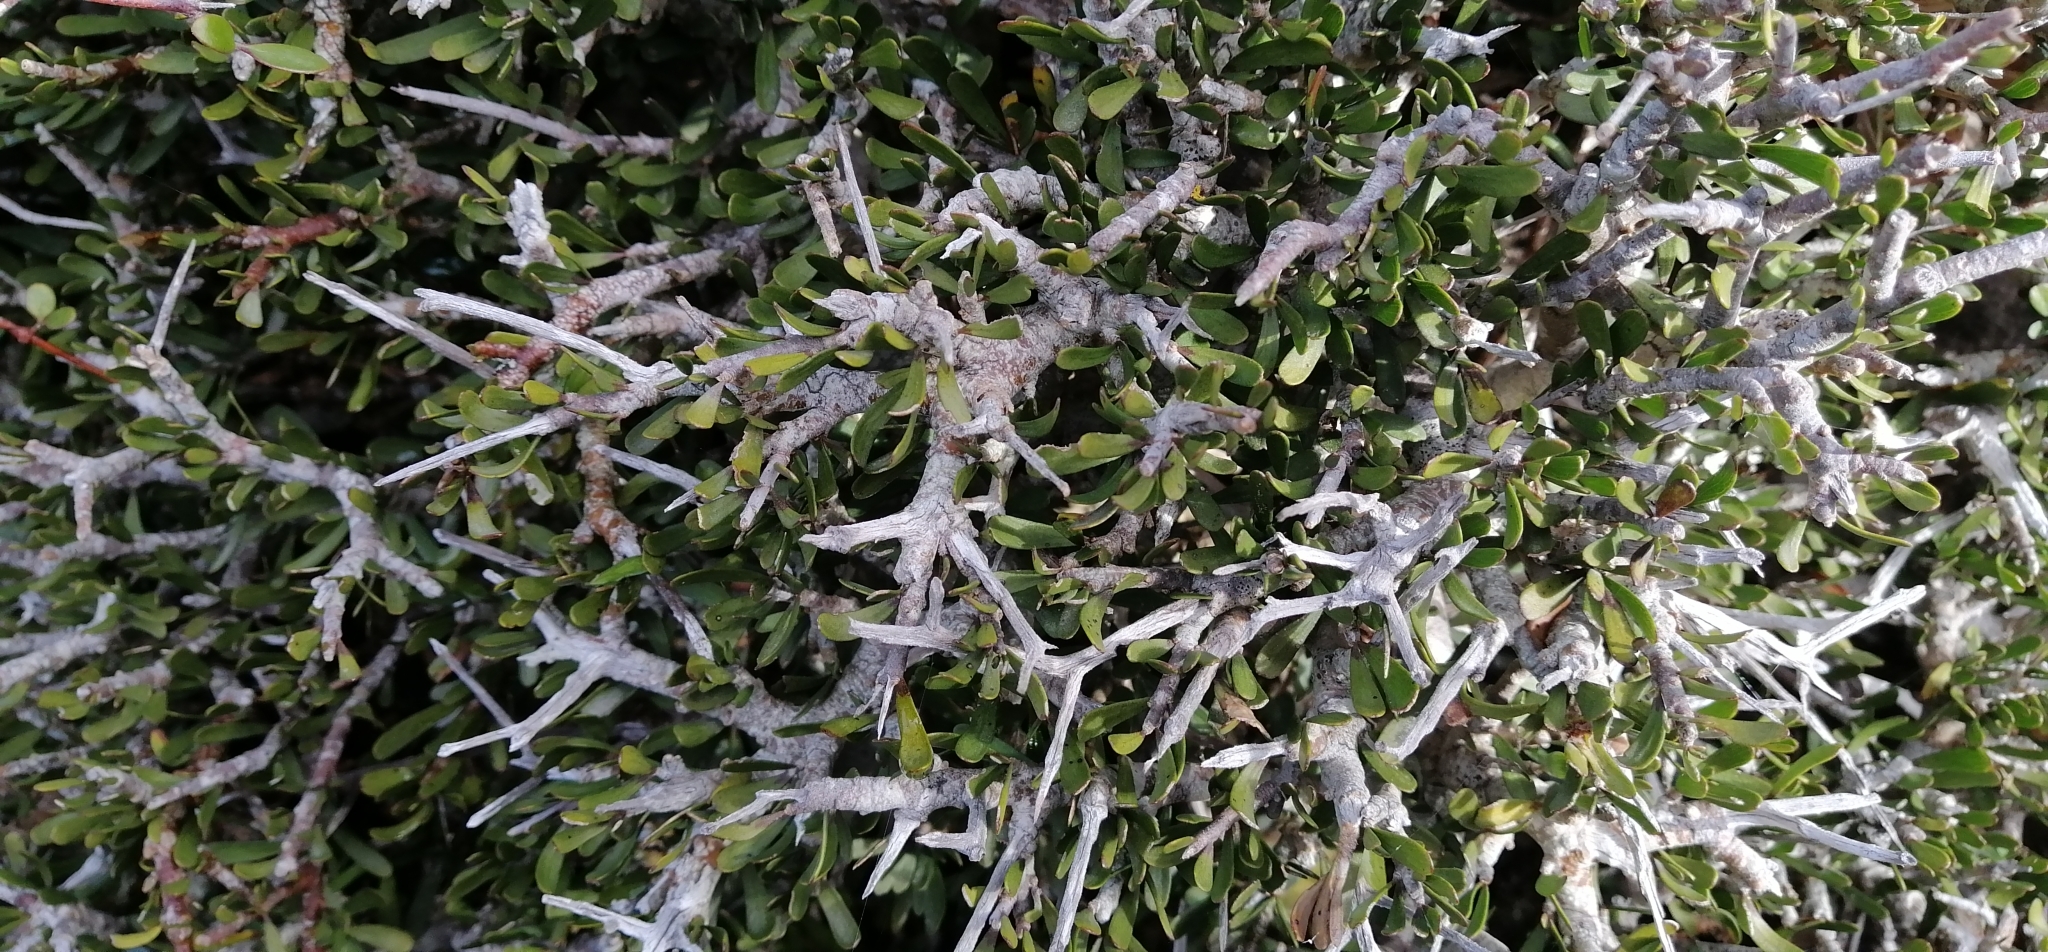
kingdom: Plantae
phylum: Tracheophyta
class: Magnoliopsida
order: Malpighiales
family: Violaceae
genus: Melicytus
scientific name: Melicytus alpinus
